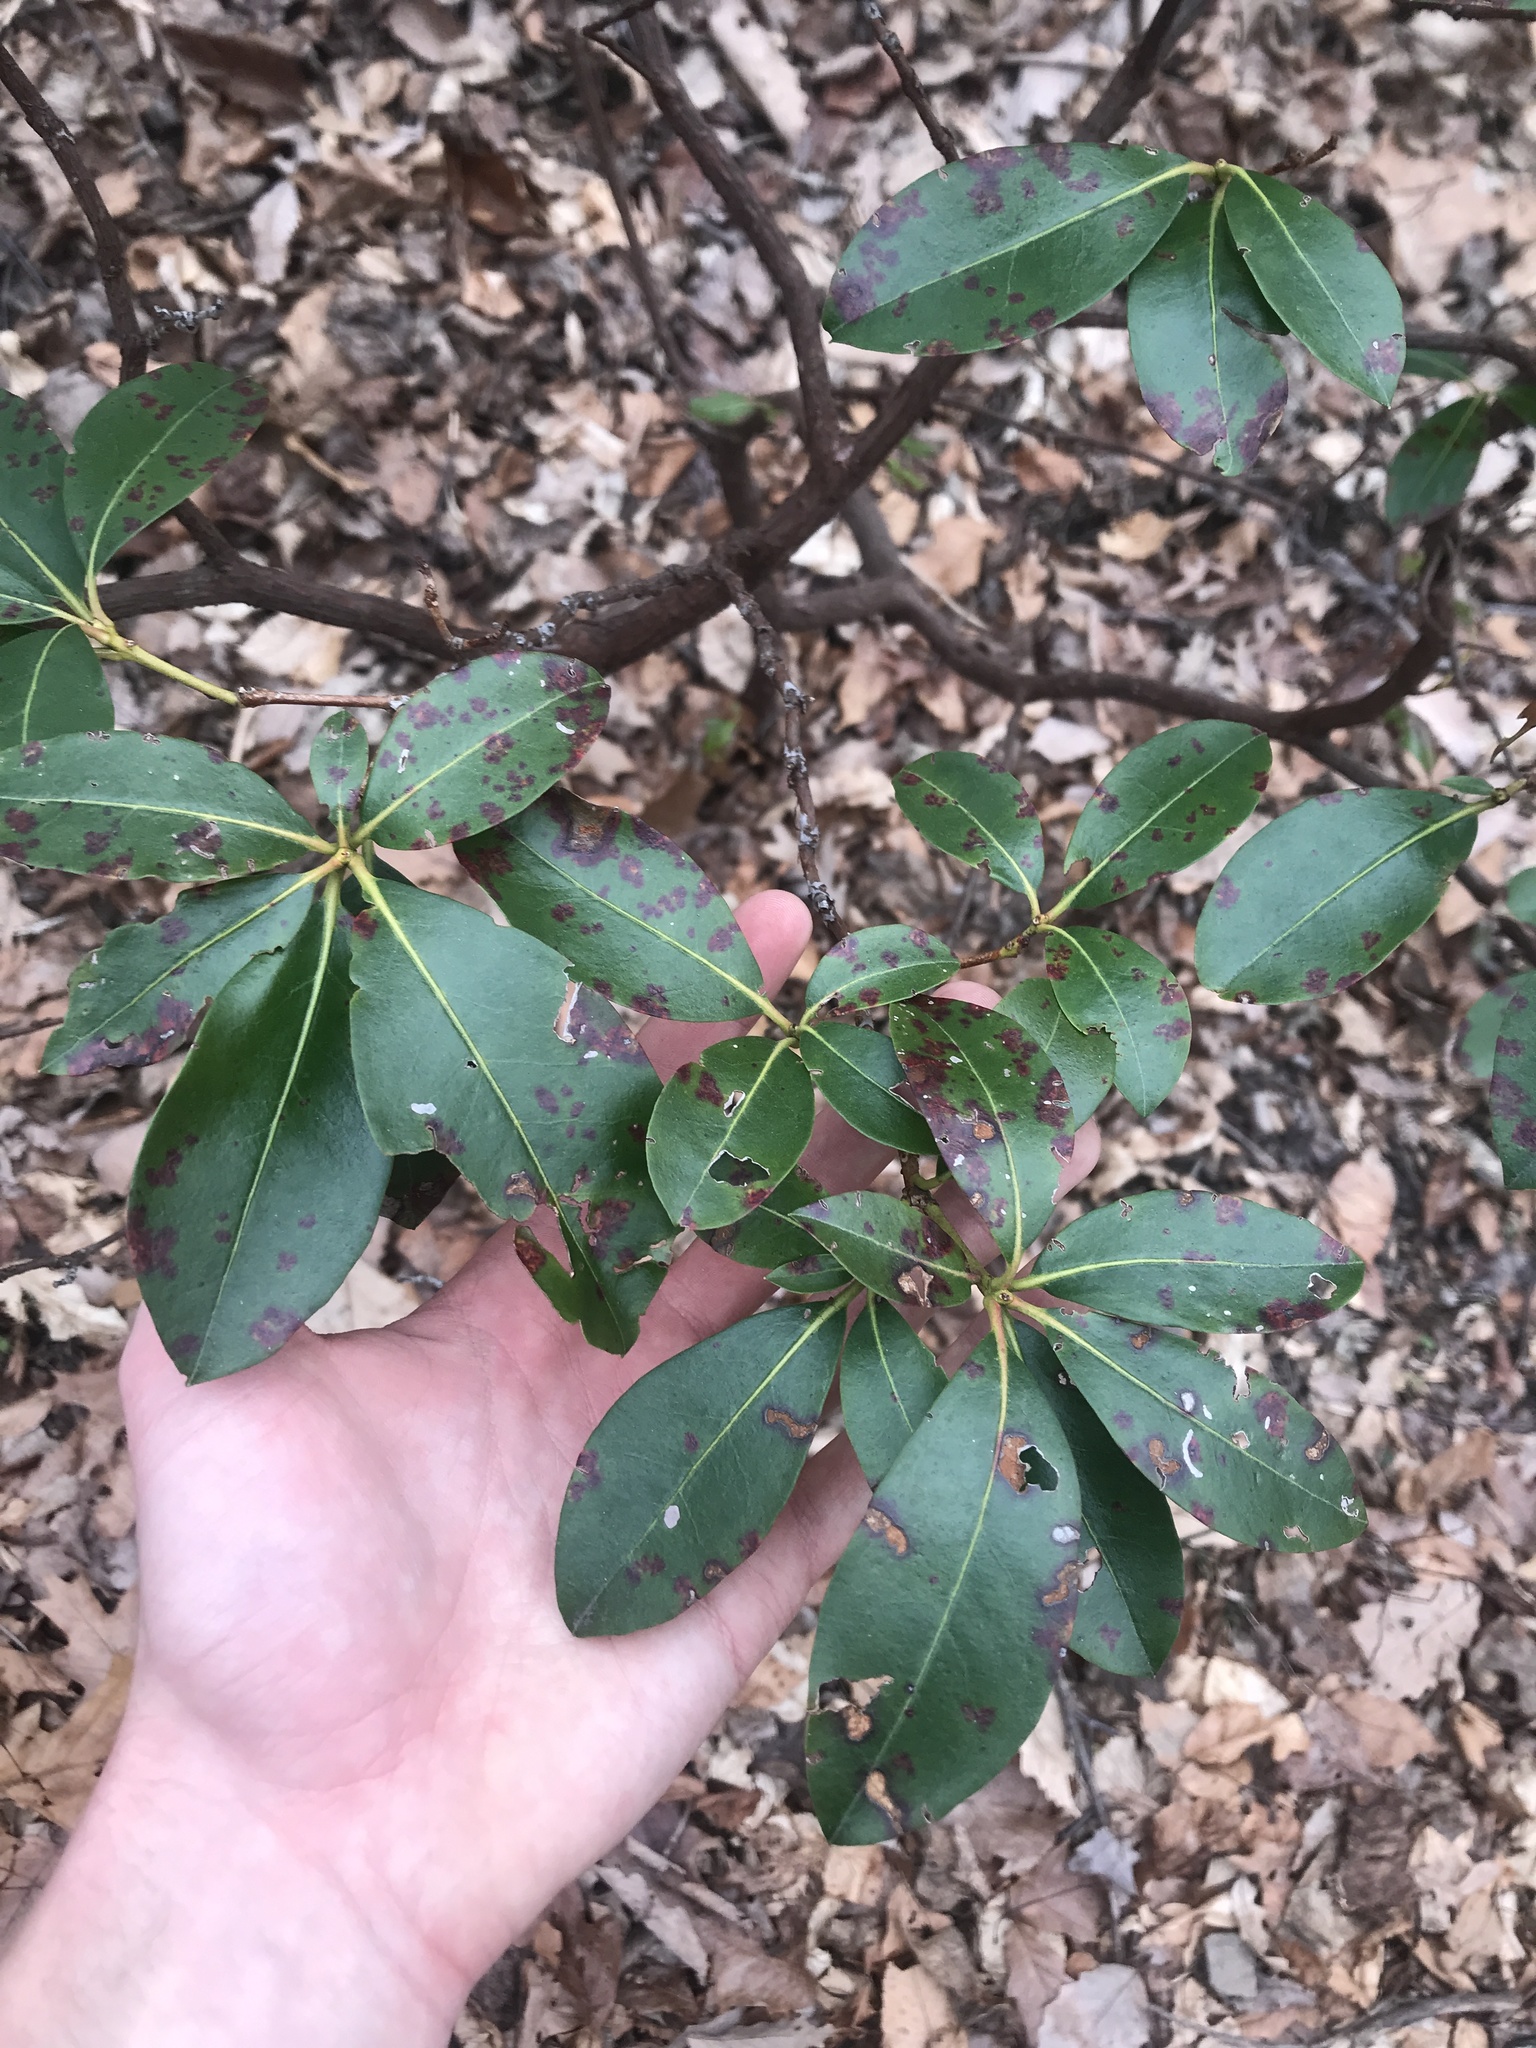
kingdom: Plantae
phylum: Tracheophyta
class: Magnoliopsida
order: Ericales
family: Ericaceae
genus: Kalmia
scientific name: Kalmia latifolia
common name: Mountain-laurel
